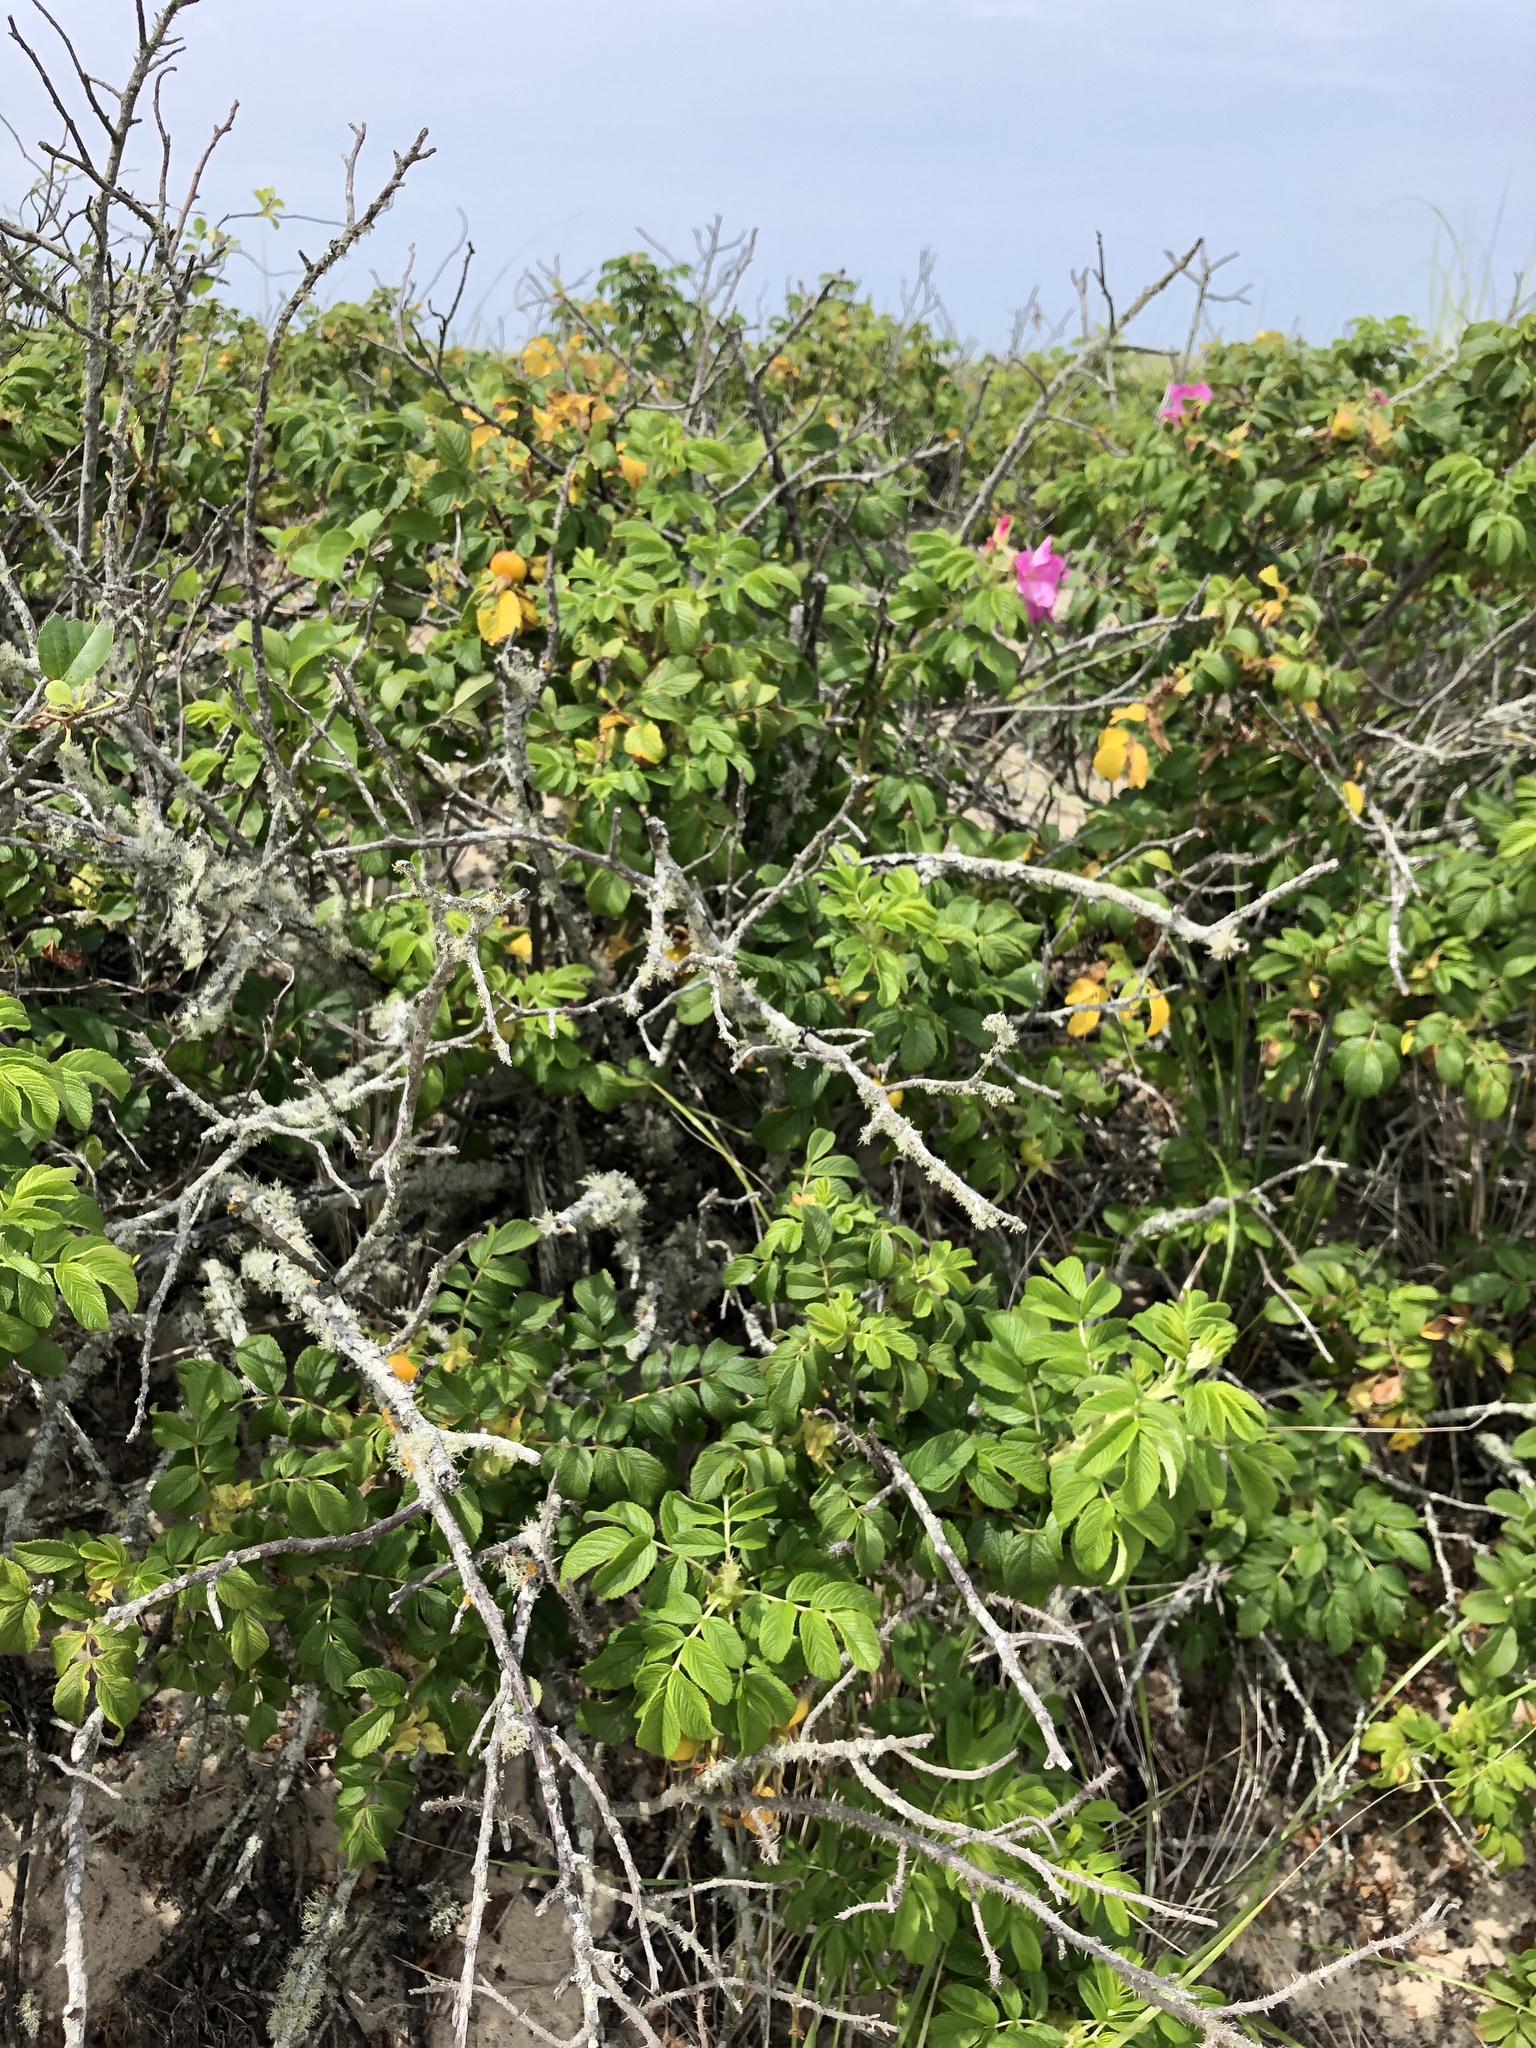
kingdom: Plantae
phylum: Tracheophyta
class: Magnoliopsida
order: Rosales
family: Rosaceae
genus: Rosa
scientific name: Rosa rugosa
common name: Japanese rose
